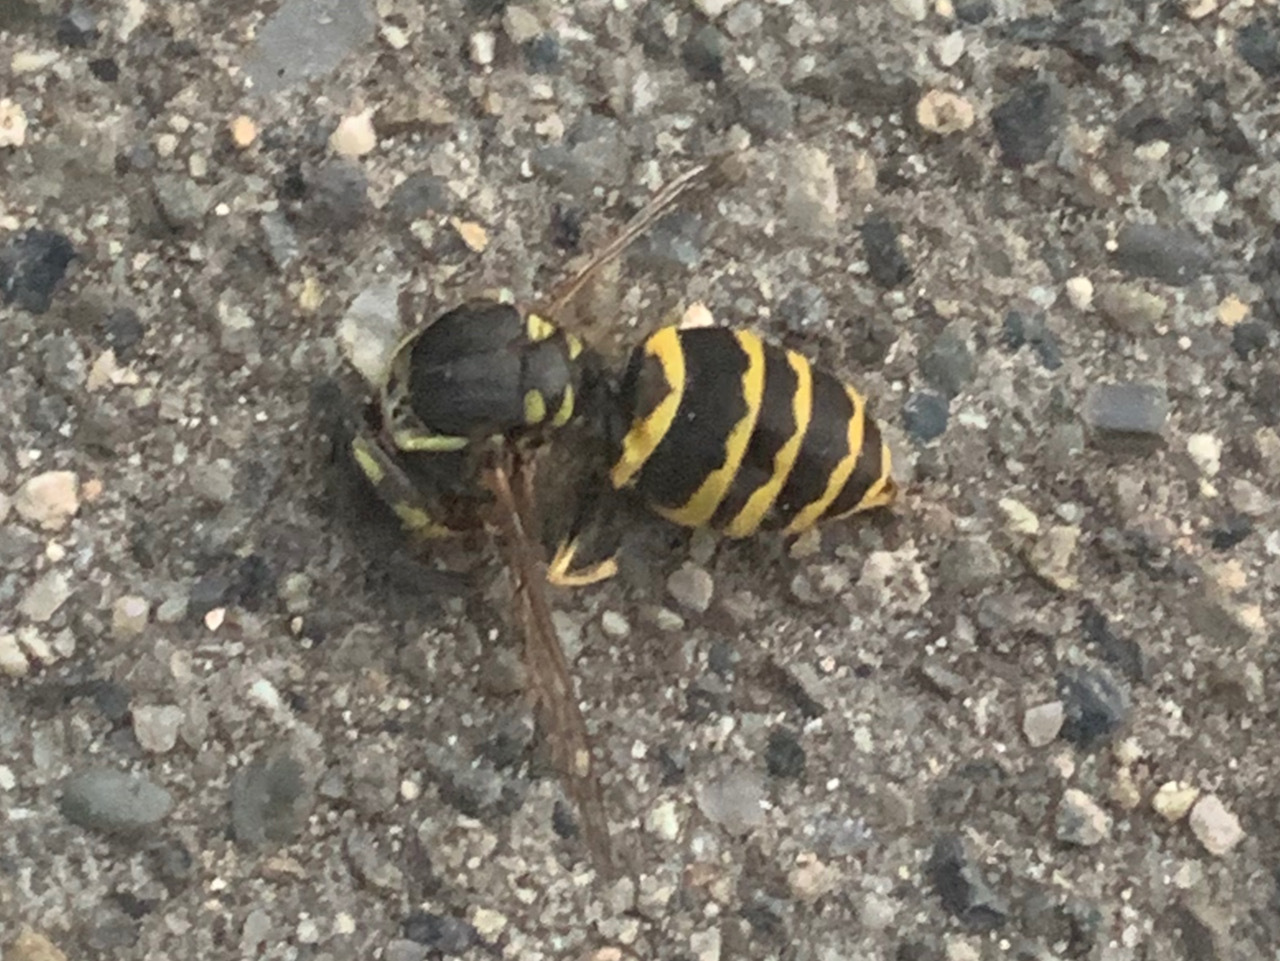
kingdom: Animalia
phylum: Arthropoda
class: Insecta
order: Hymenoptera
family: Vespidae
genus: Vespula
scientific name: Vespula alascensis
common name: Alaska yellowjacket
